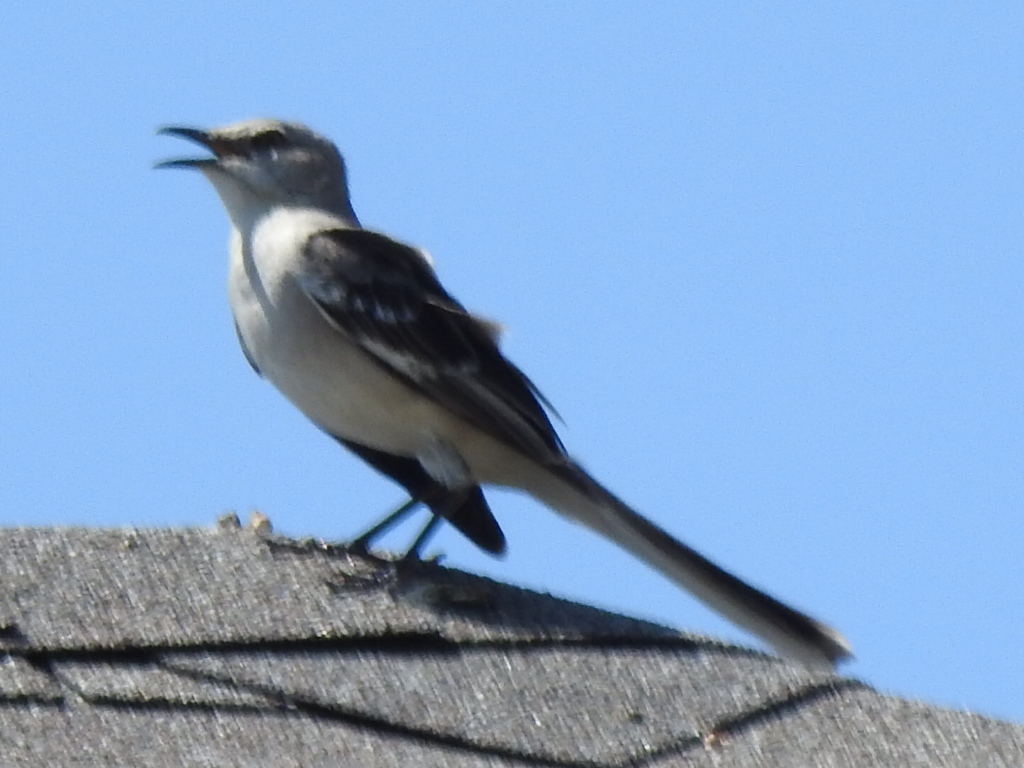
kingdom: Animalia
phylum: Chordata
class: Aves
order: Passeriformes
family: Mimidae
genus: Mimus
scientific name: Mimus polyglottos
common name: Northern mockingbird
